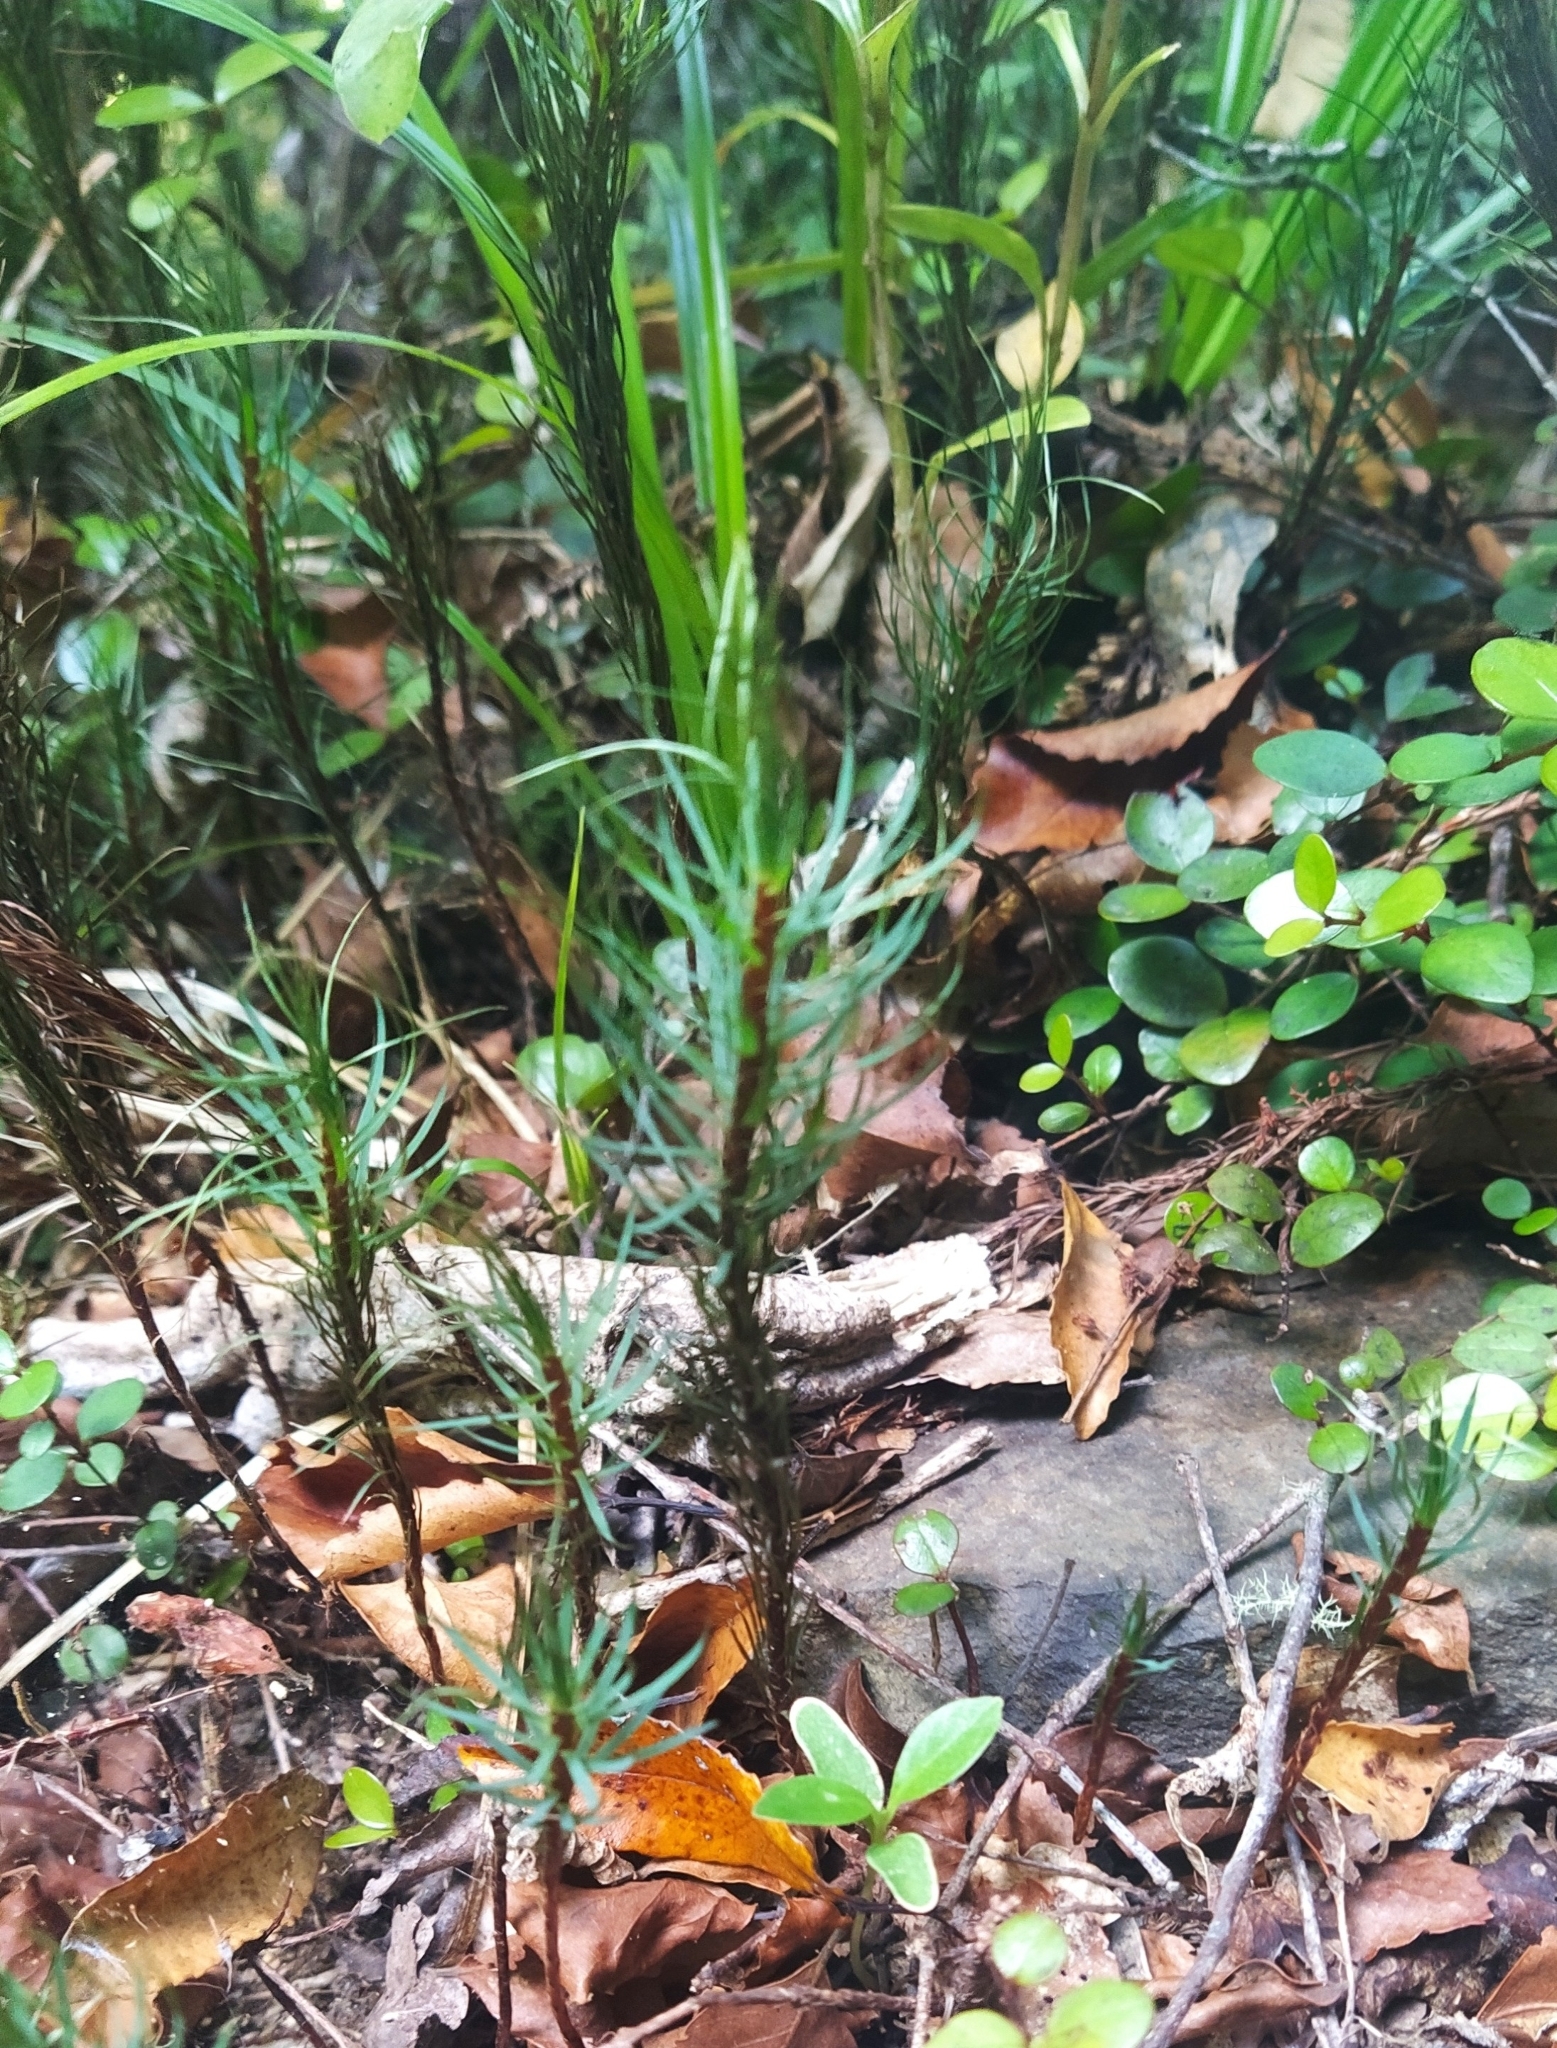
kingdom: Plantae
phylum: Bryophyta
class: Polytrichopsida
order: Polytrichales
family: Polytrichaceae
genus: Dawsonia
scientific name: Dawsonia superba
